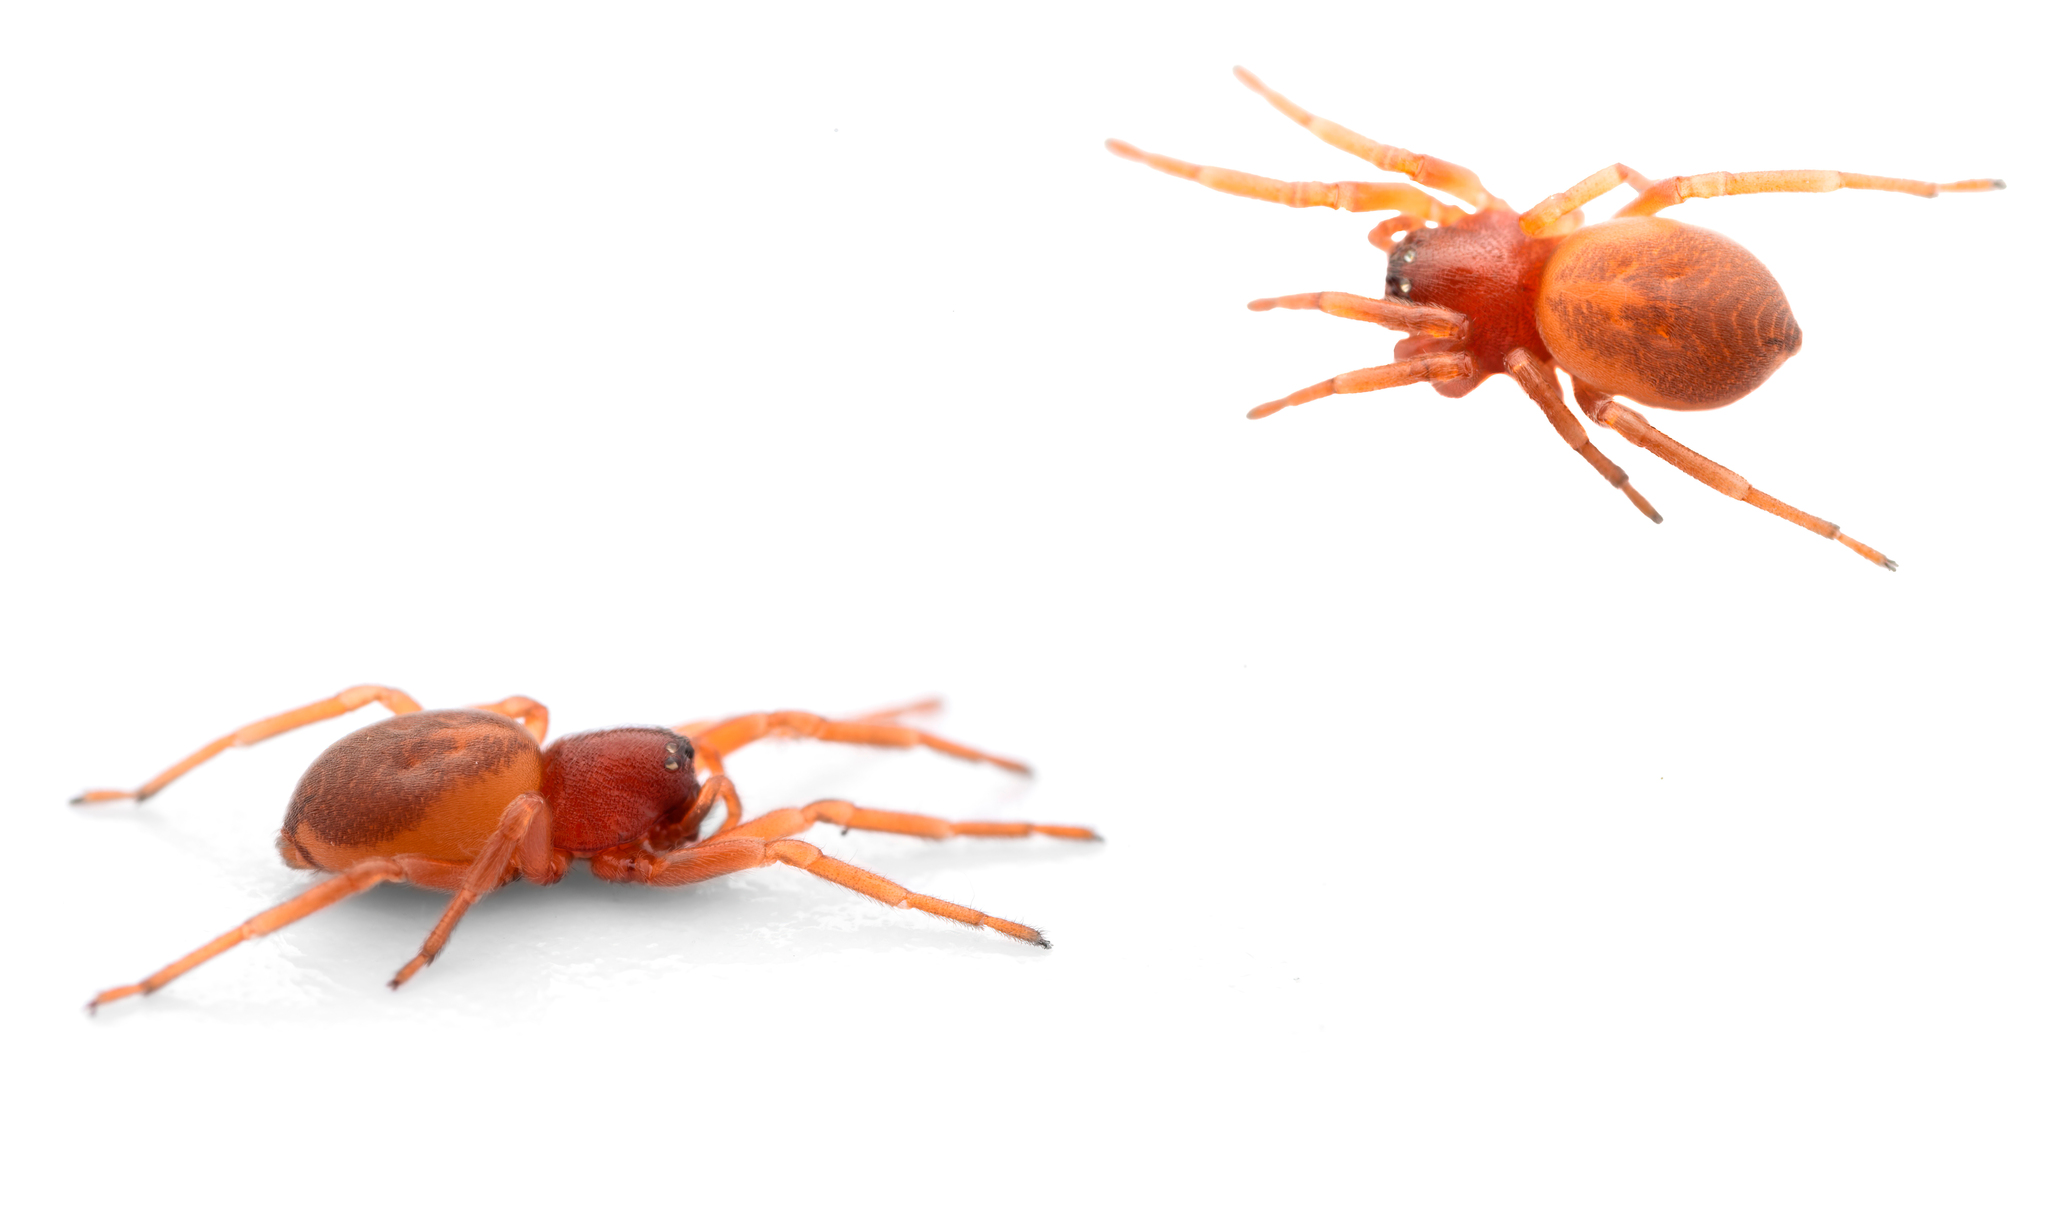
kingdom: Animalia
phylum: Arthropoda
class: Arachnida
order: Araneae
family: Trachelidae
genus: Trachelas
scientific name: Trachelas minor
